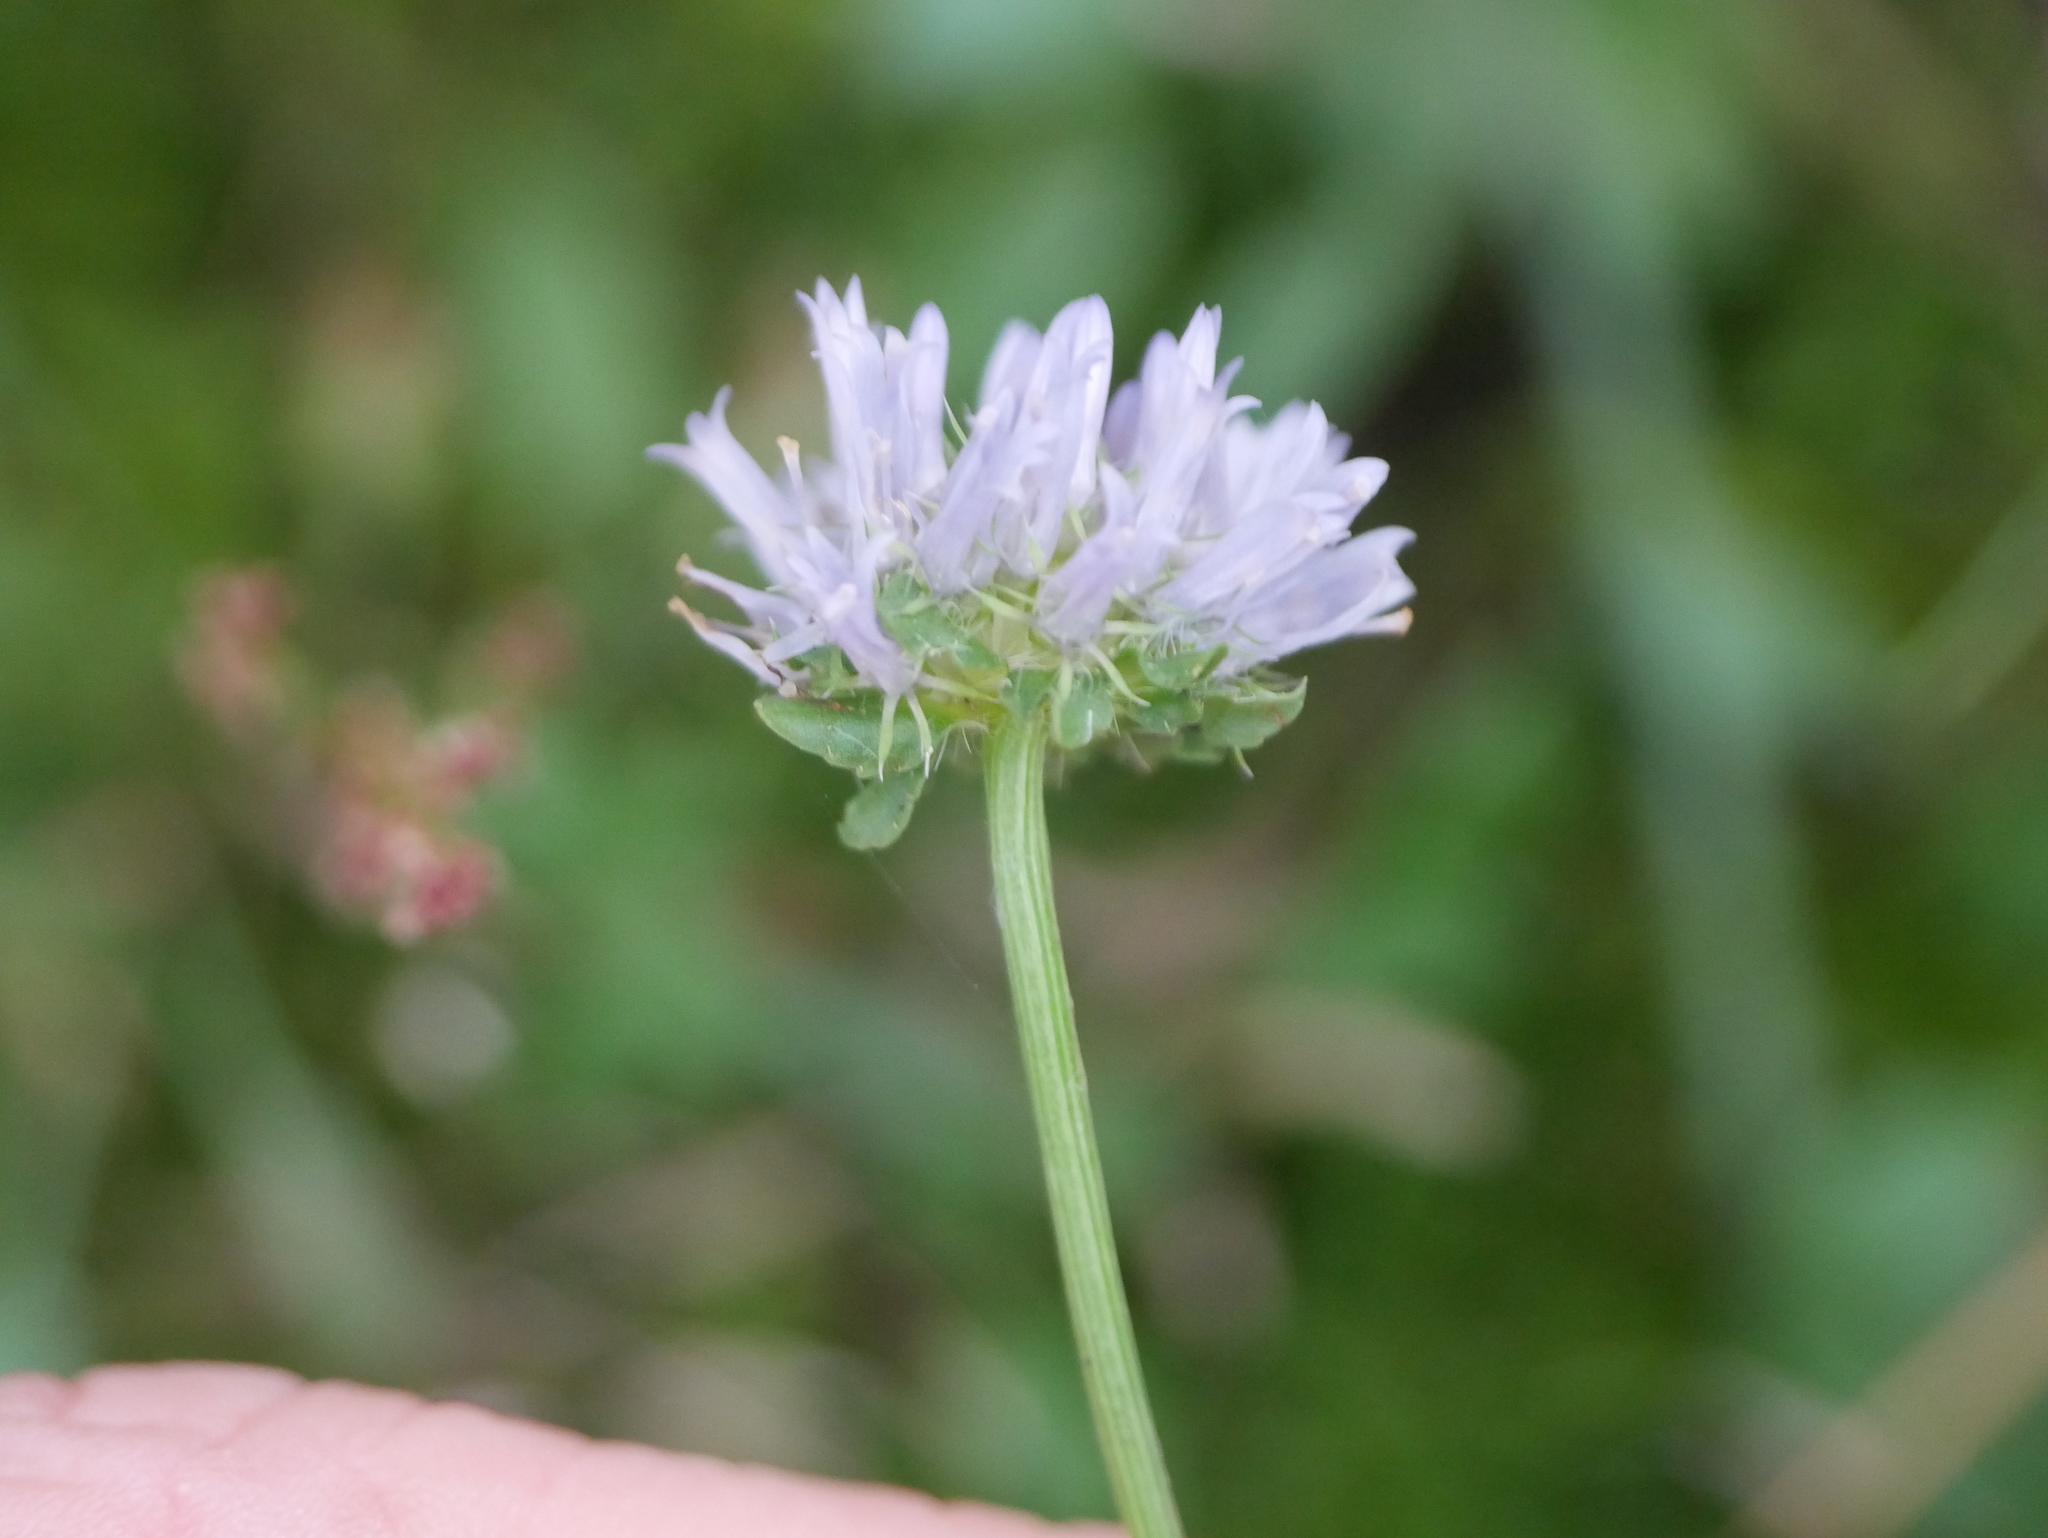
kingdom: Plantae
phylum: Tracheophyta
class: Magnoliopsida
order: Asterales
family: Campanulaceae
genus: Jasione
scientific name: Jasione montana
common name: Sheep's-bit
